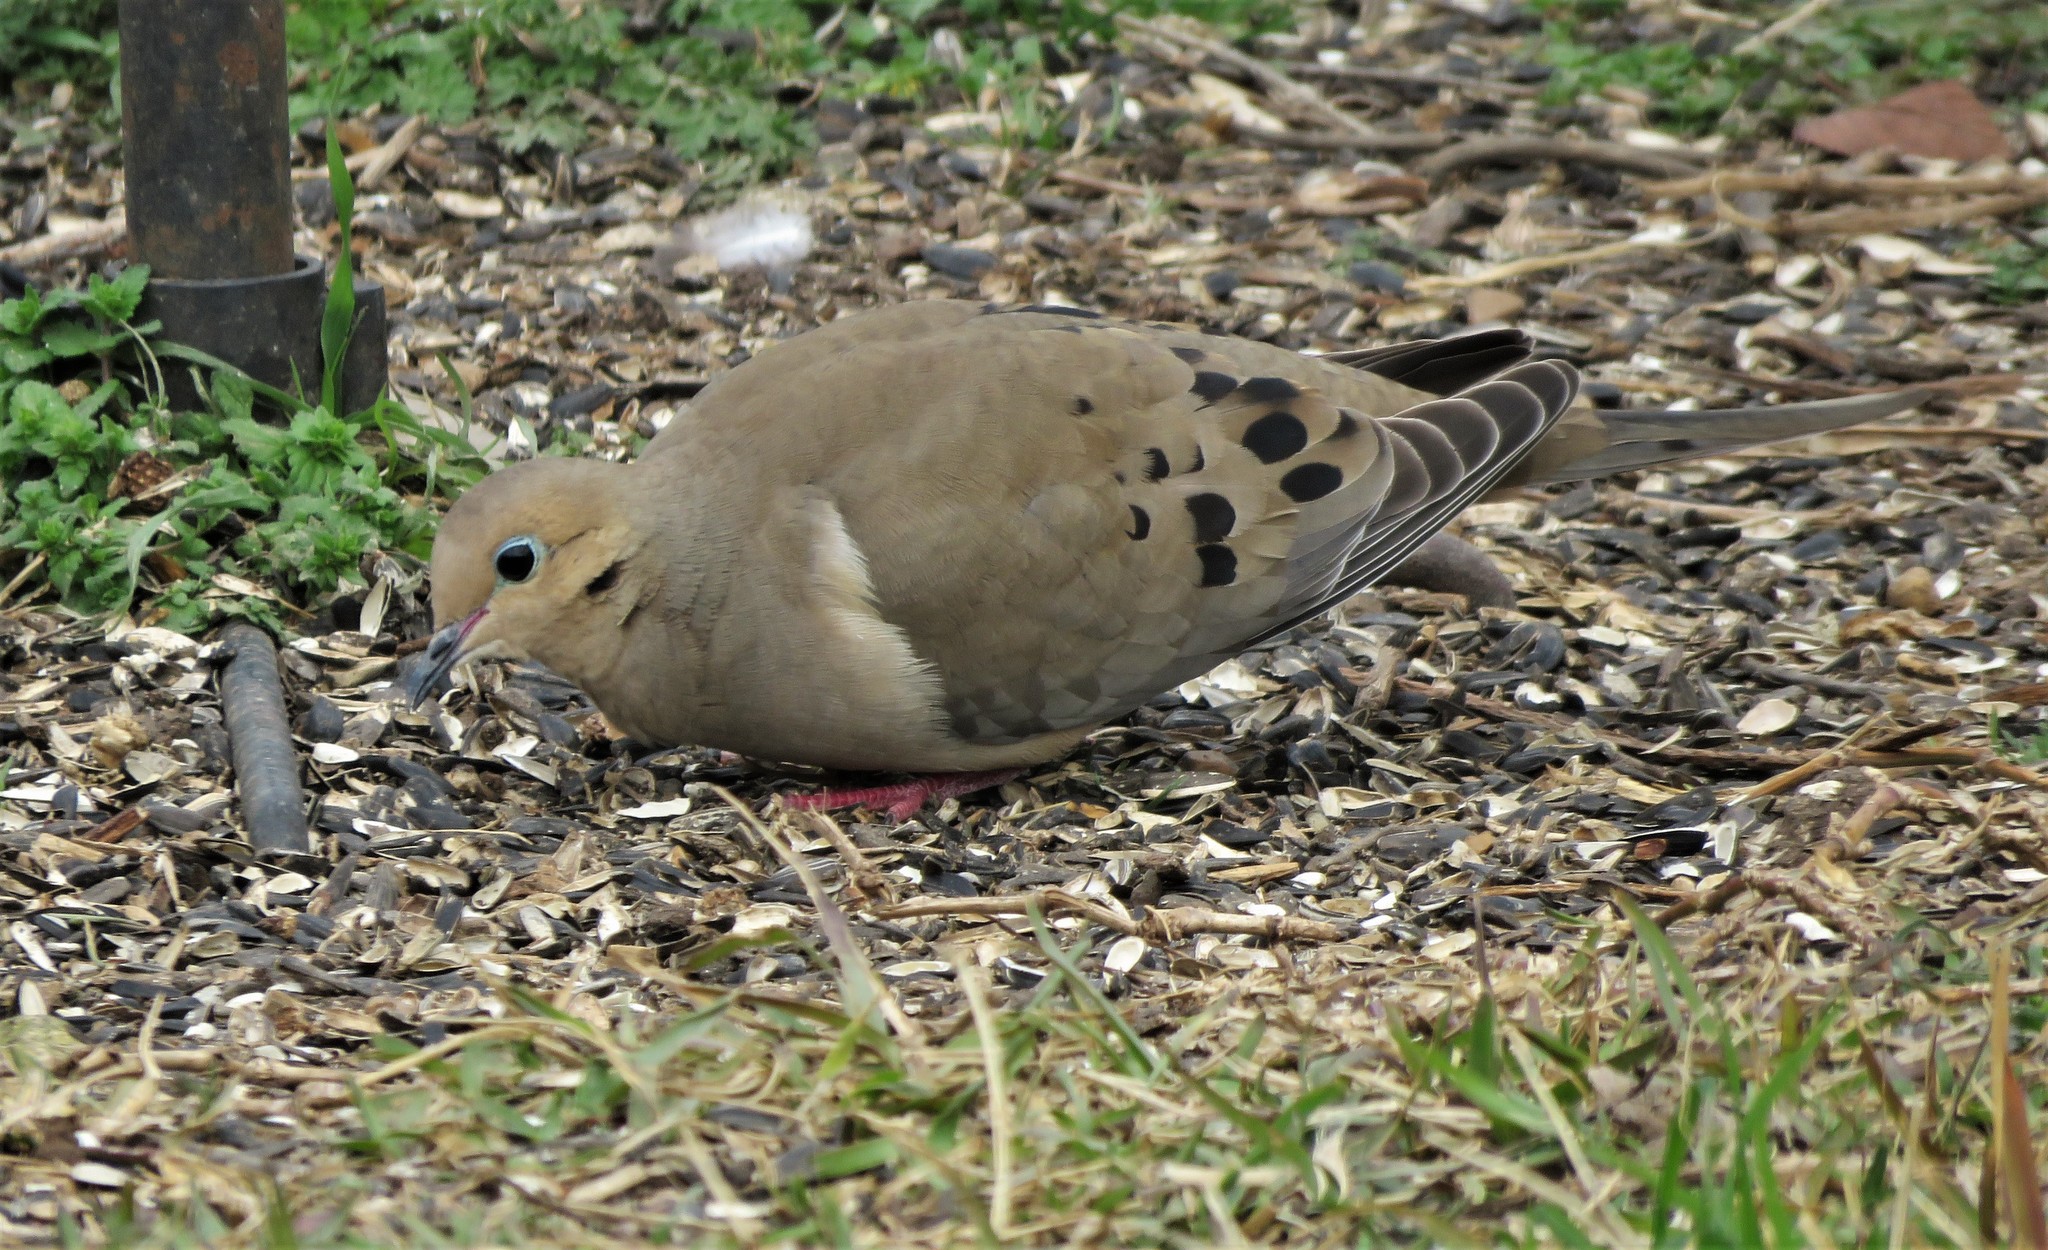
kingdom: Animalia
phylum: Chordata
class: Aves
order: Columbiformes
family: Columbidae
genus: Zenaida
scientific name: Zenaida macroura
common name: Mourning dove
